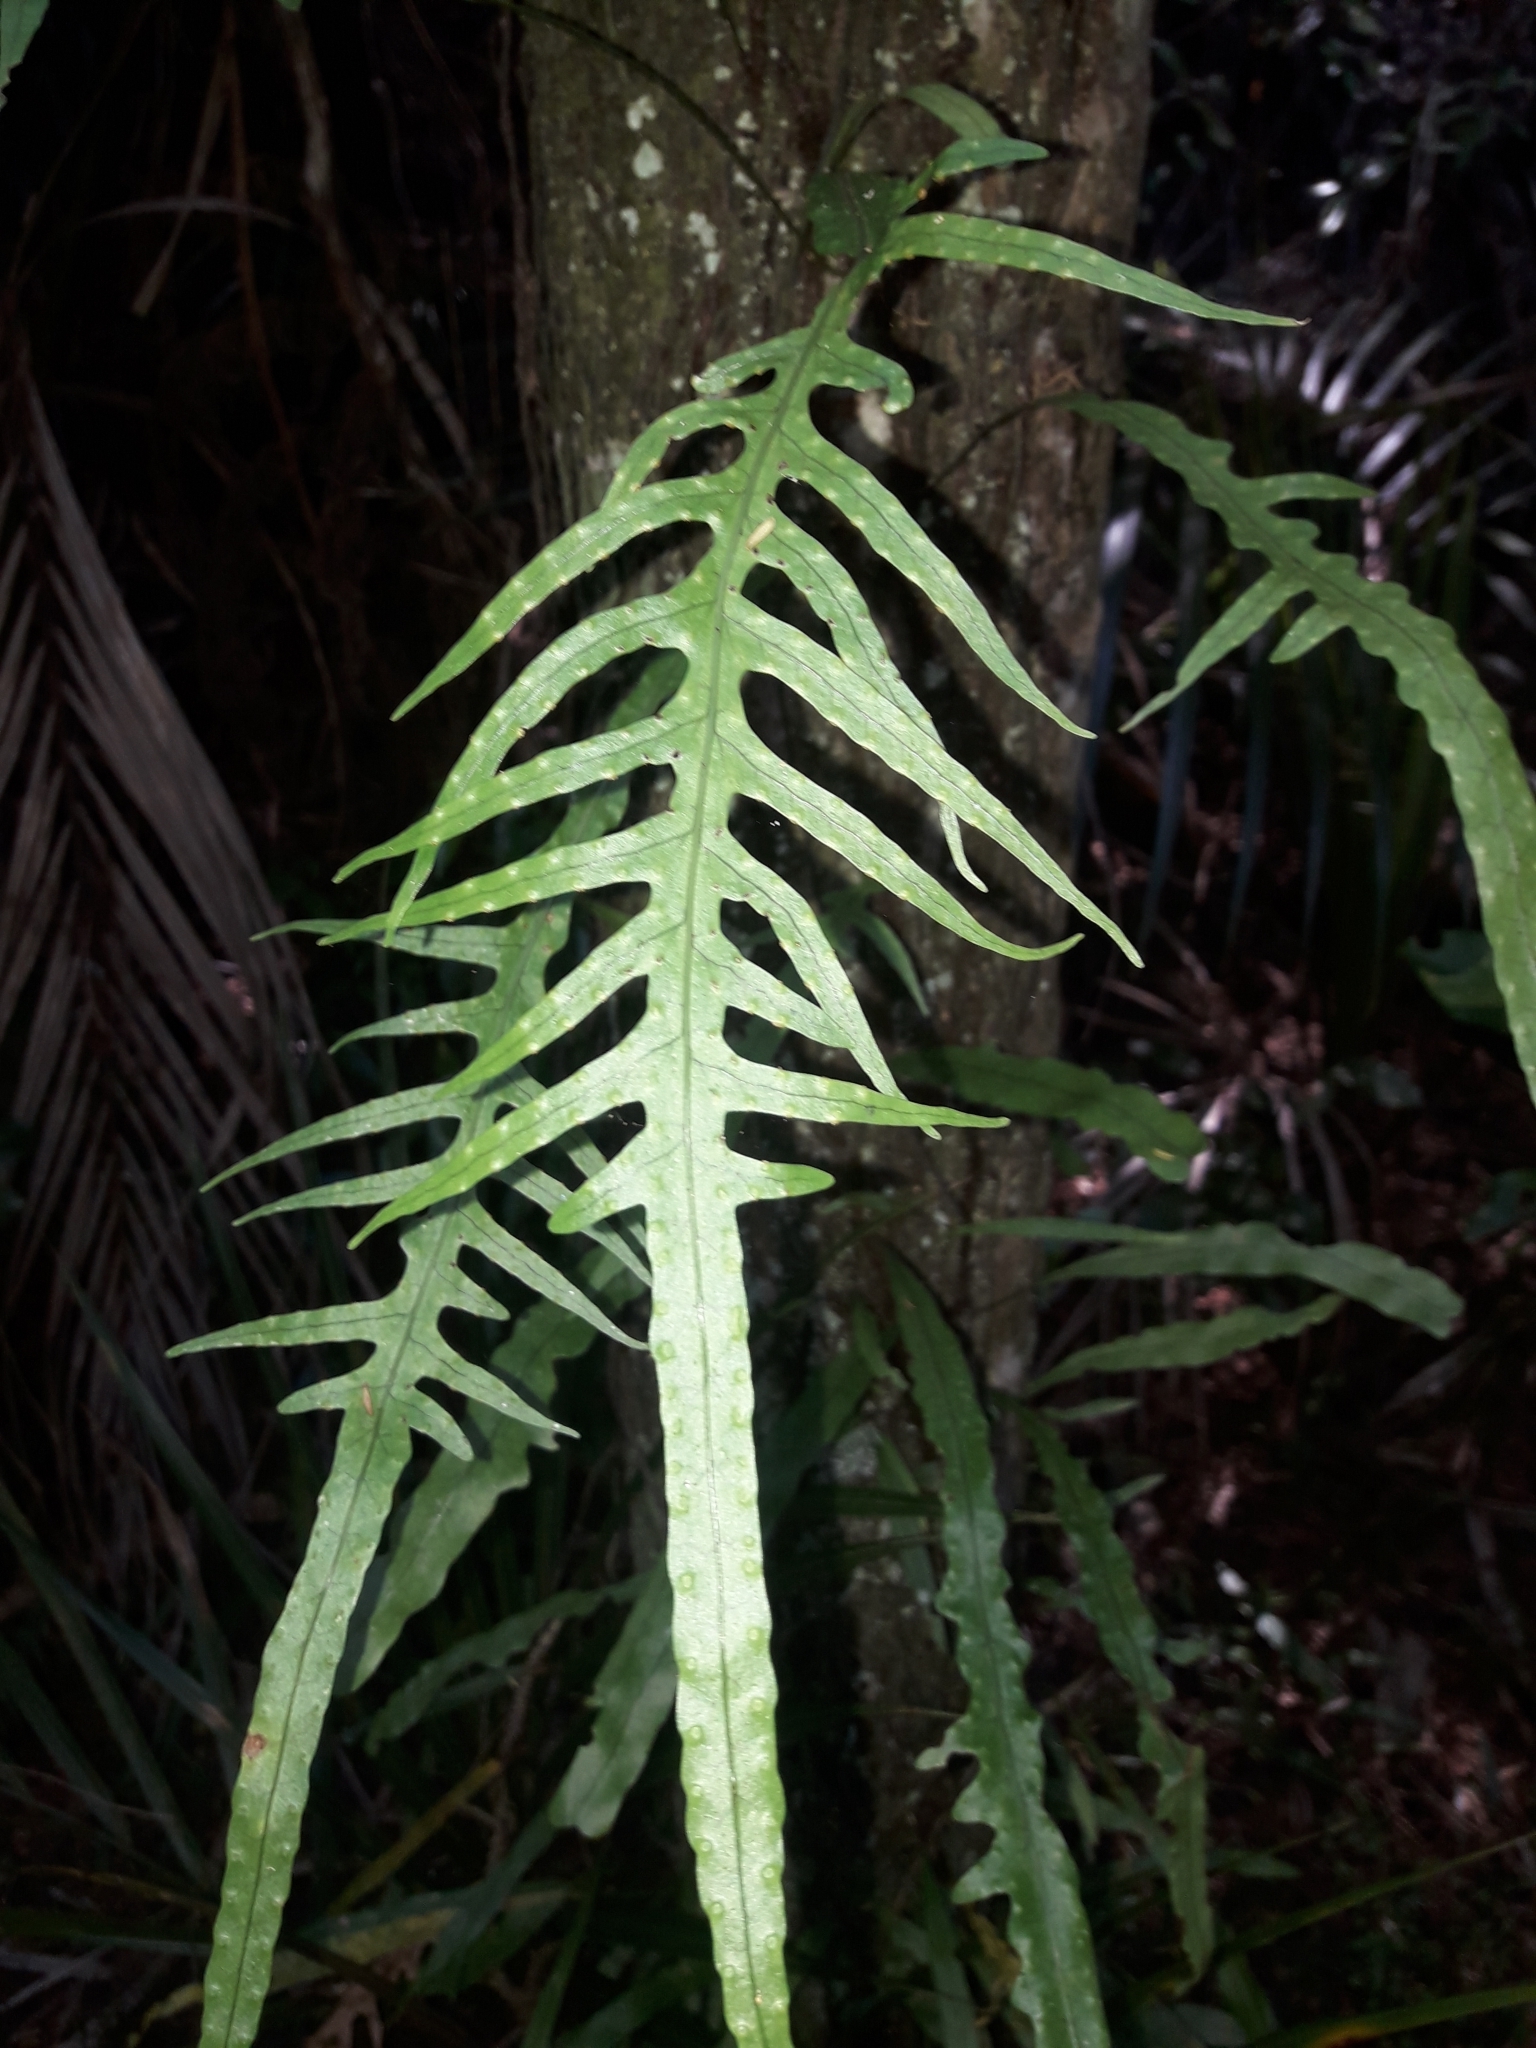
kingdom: Plantae
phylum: Tracheophyta
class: Polypodiopsida
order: Polypodiales
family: Polypodiaceae
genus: Lecanopteris
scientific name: Lecanopteris scandens
